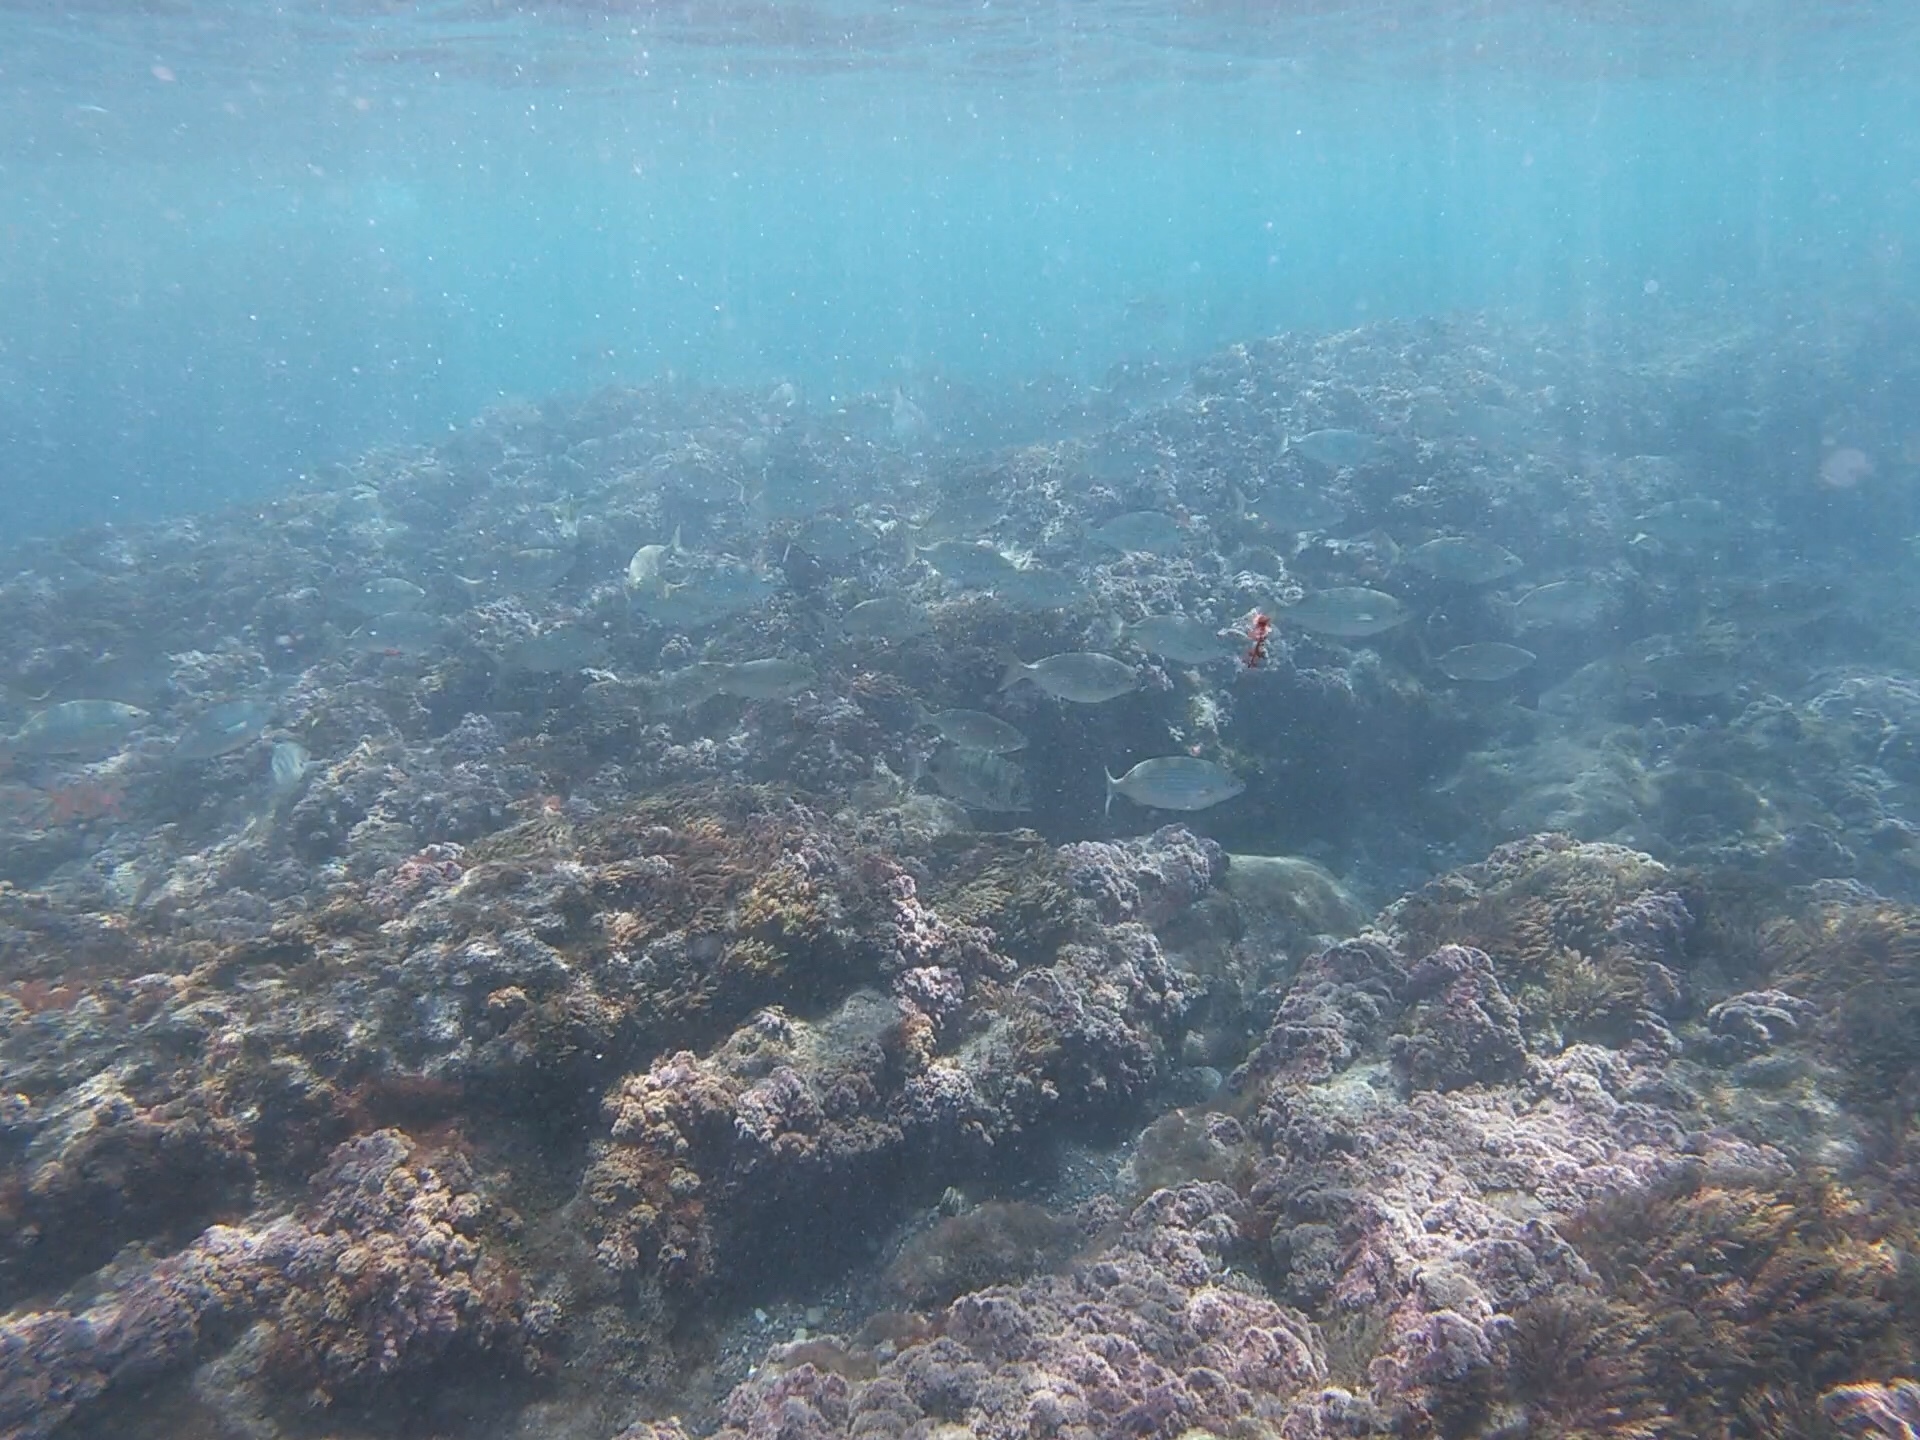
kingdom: Animalia
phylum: Chordata
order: Perciformes
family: Sparidae
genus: Sarpa
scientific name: Sarpa salpa
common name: Salema
